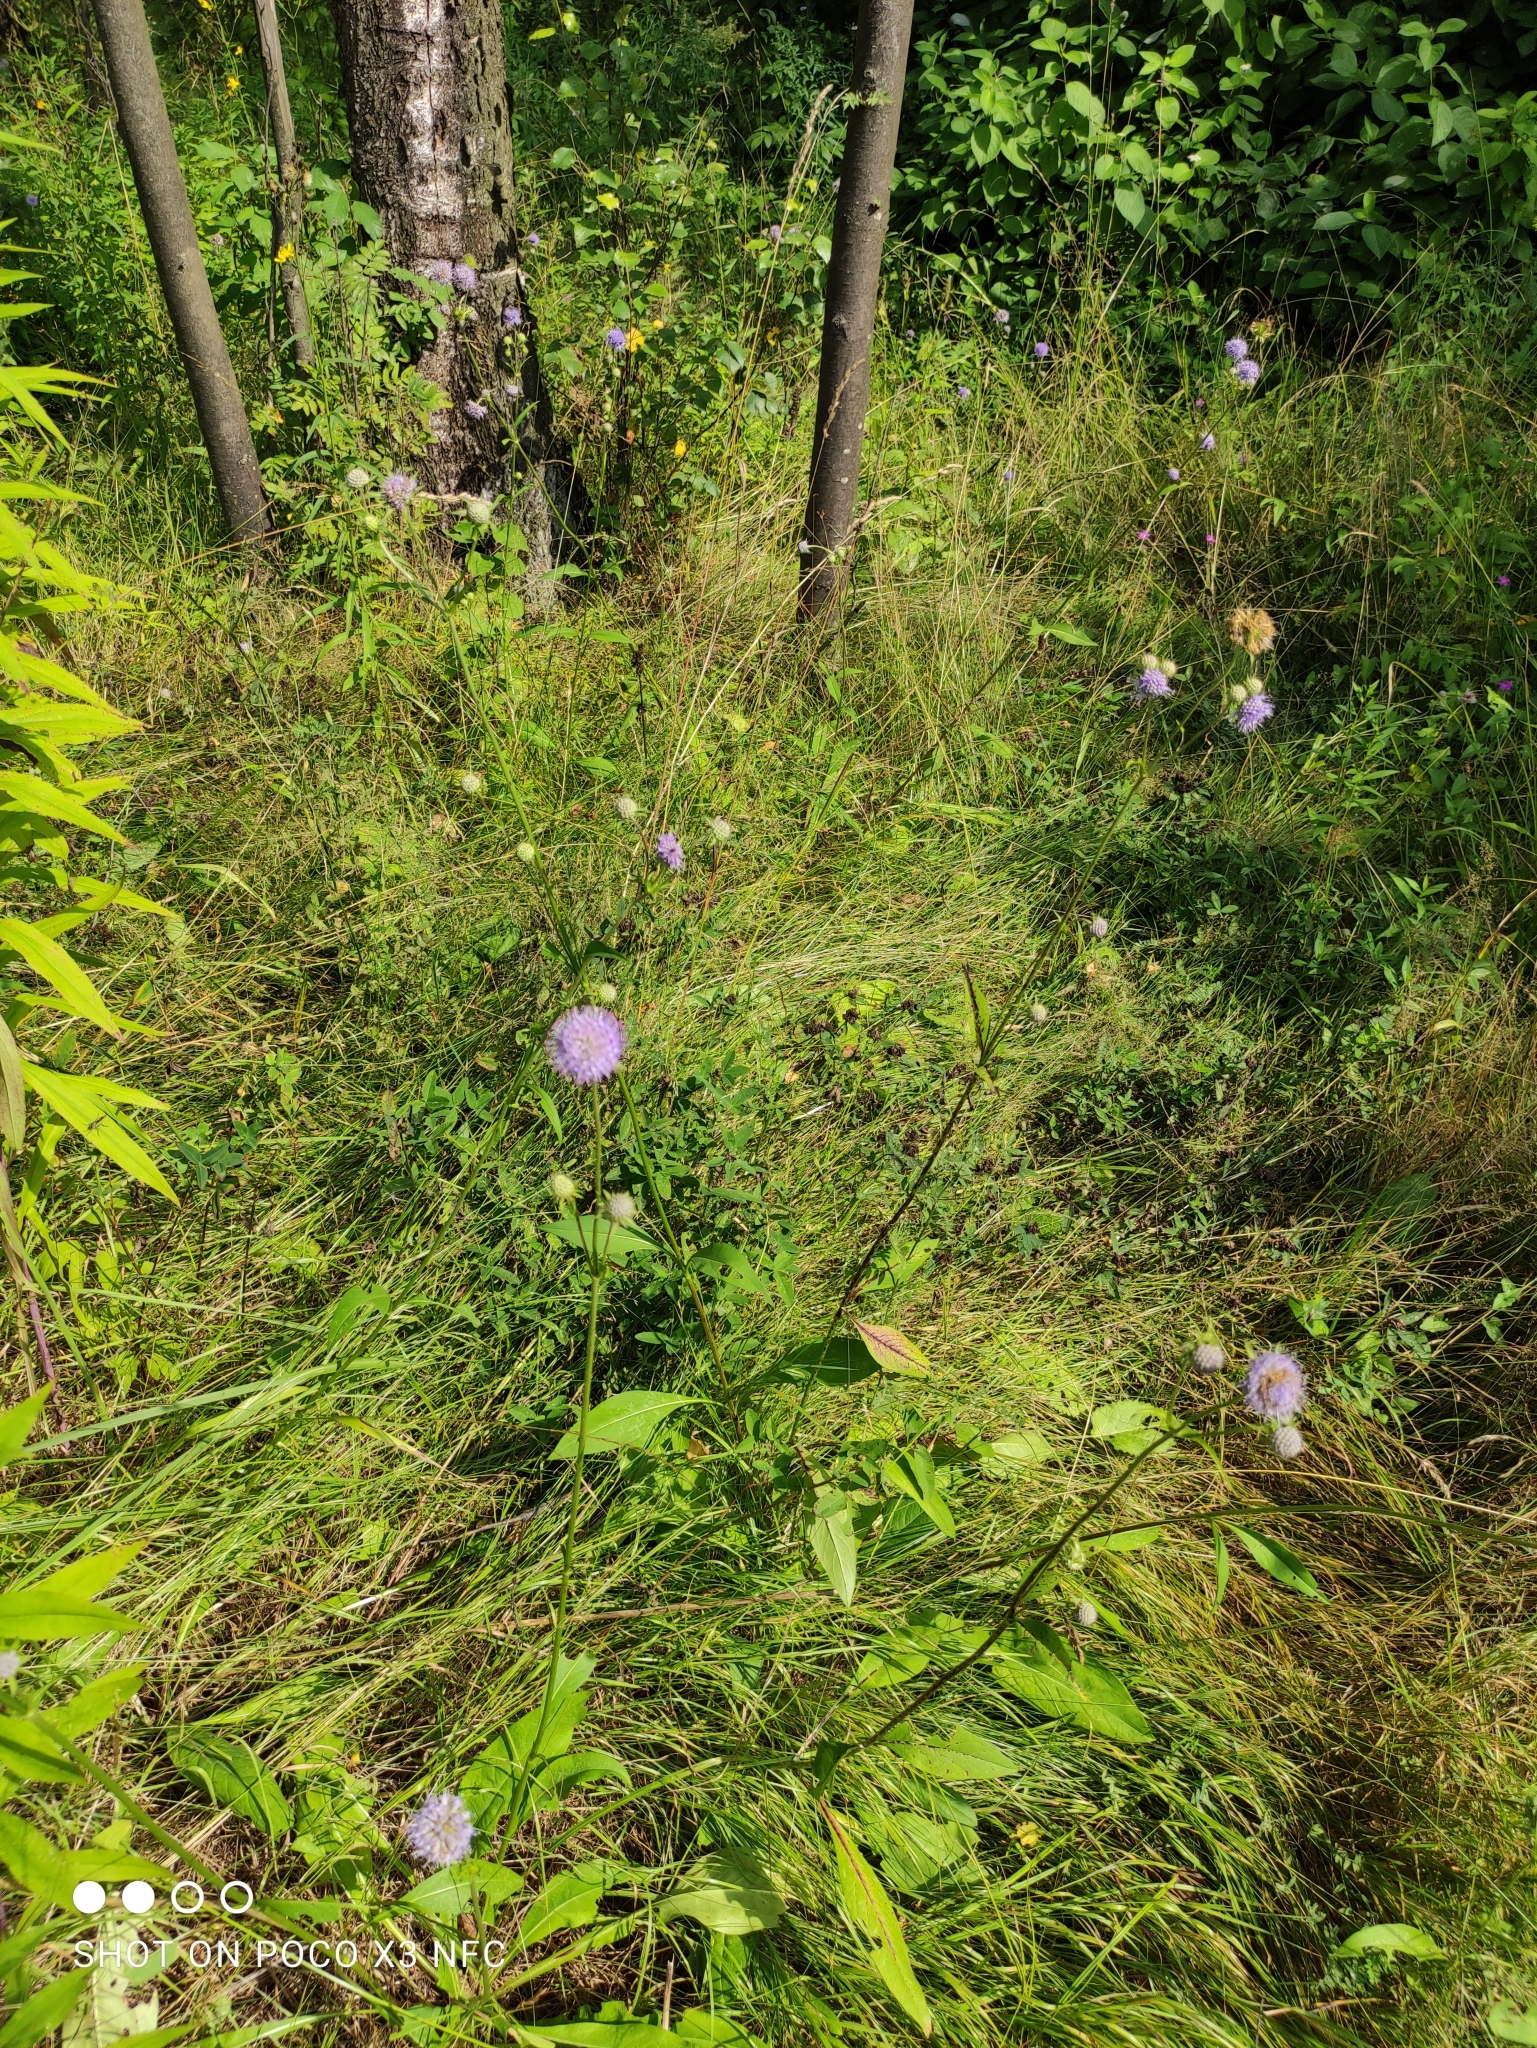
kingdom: Plantae
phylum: Tracheophyta
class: Magnoliopsida
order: Dipsacales
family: Caprifoliaceae
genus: Succisa
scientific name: Succisa pratensis
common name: Devil's-bit
